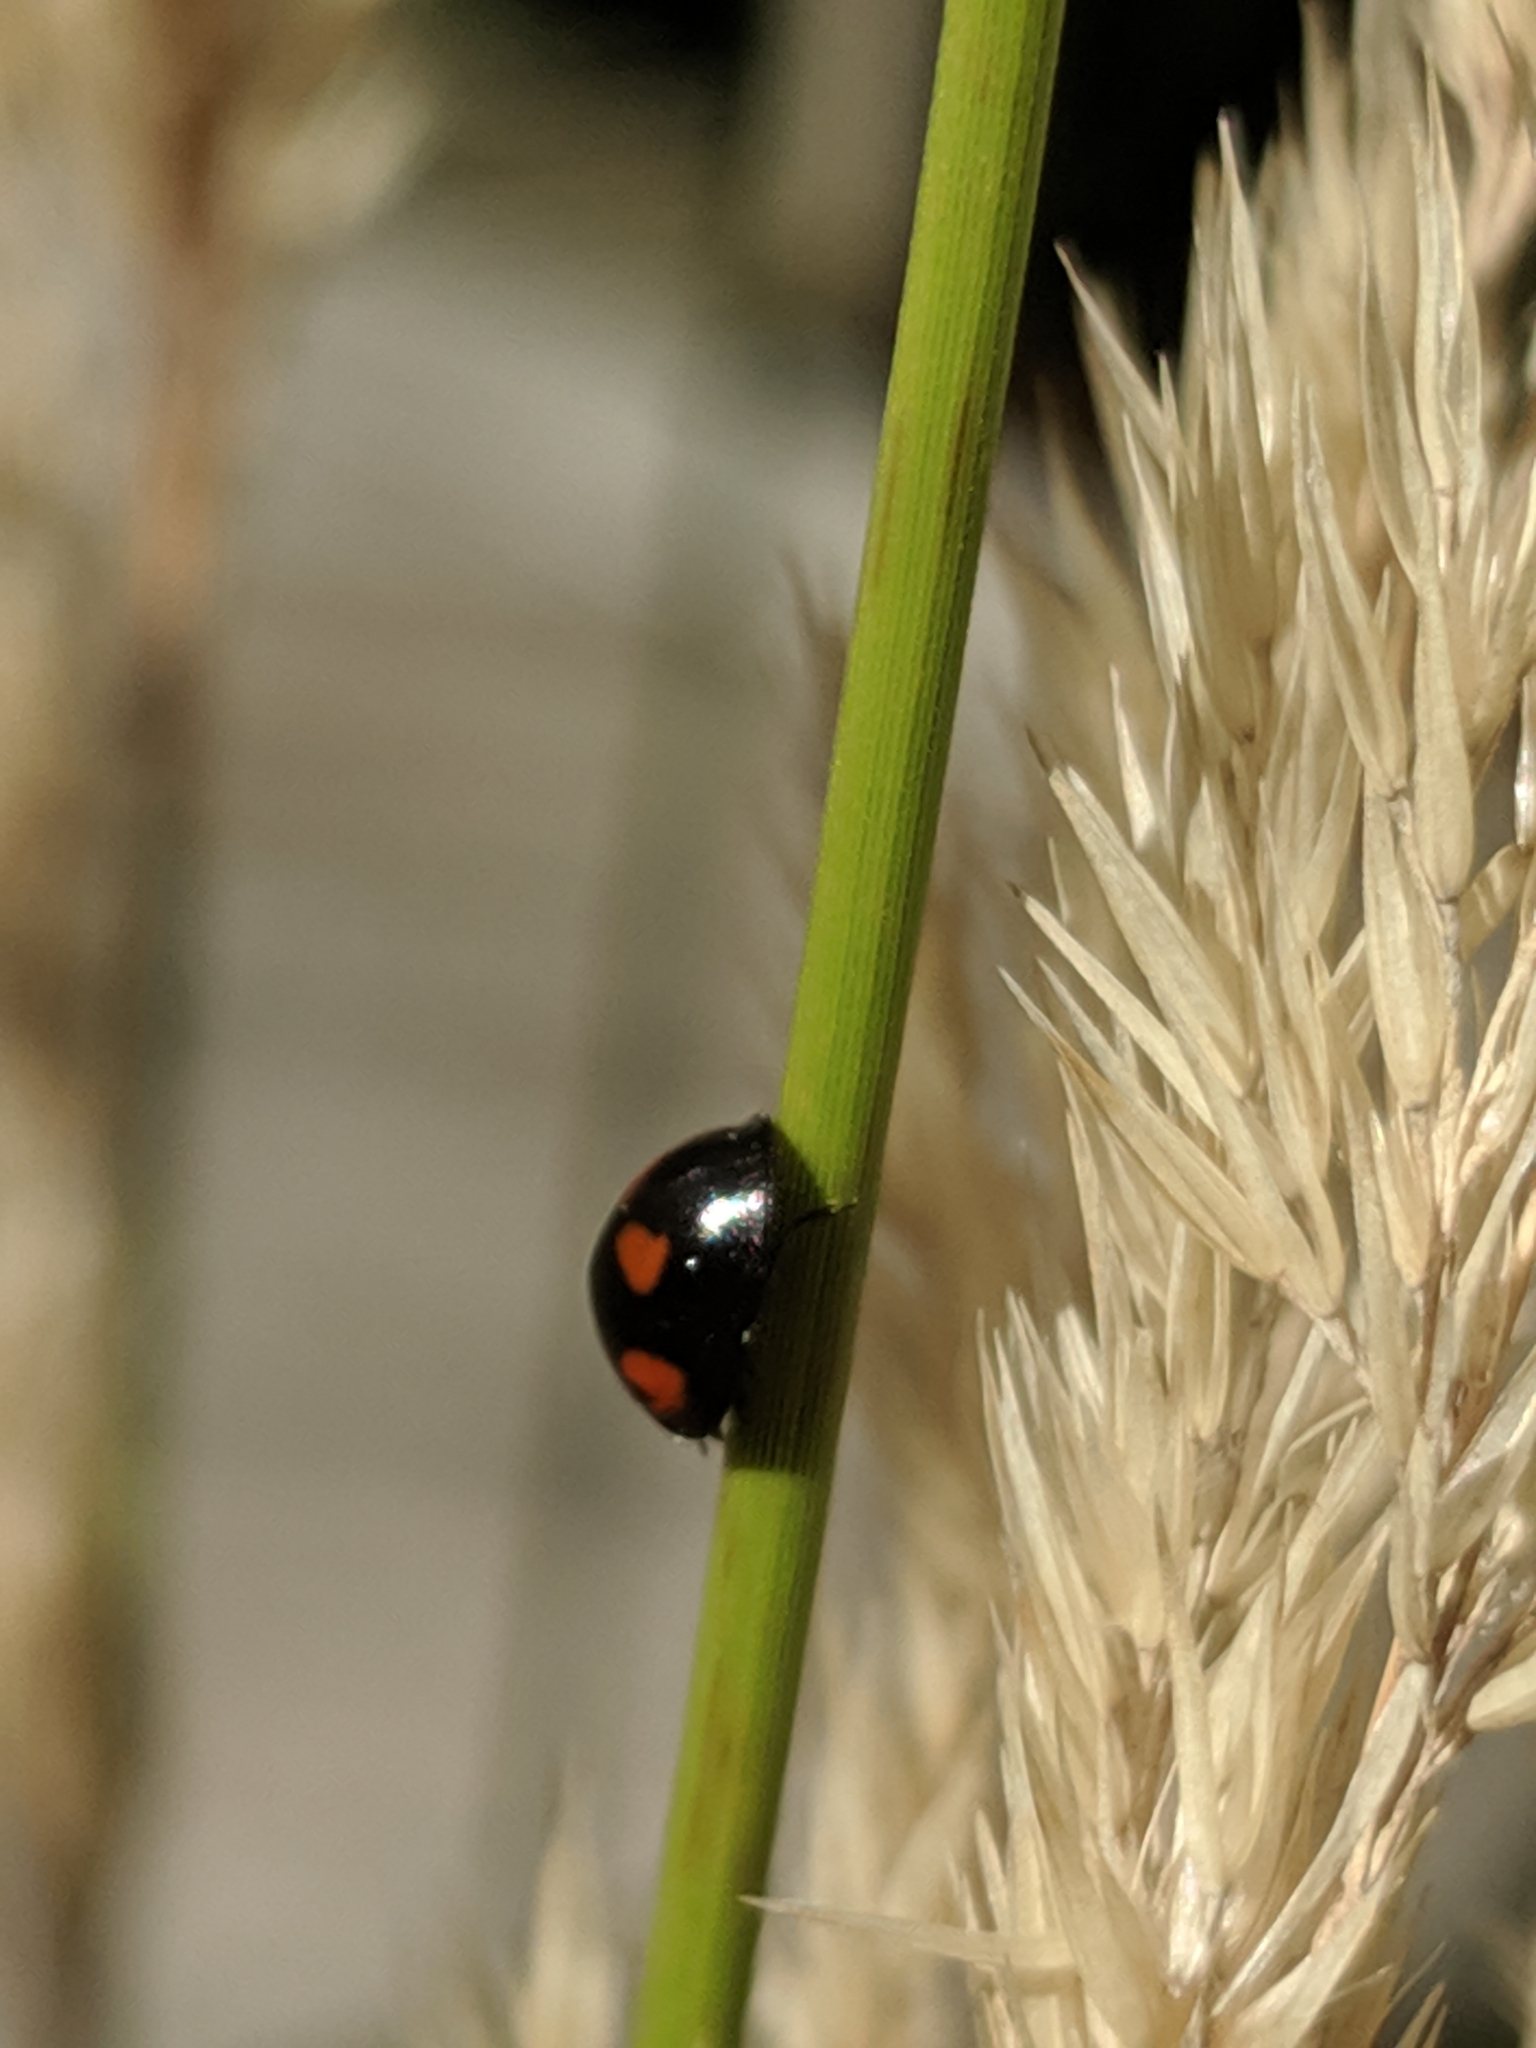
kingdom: Animalia
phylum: Arthropoda
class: Insecta
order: Coleoptera
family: Coccinellidae
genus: Brumus
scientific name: Brumus quadripustulatus
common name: Ladybird beetle
